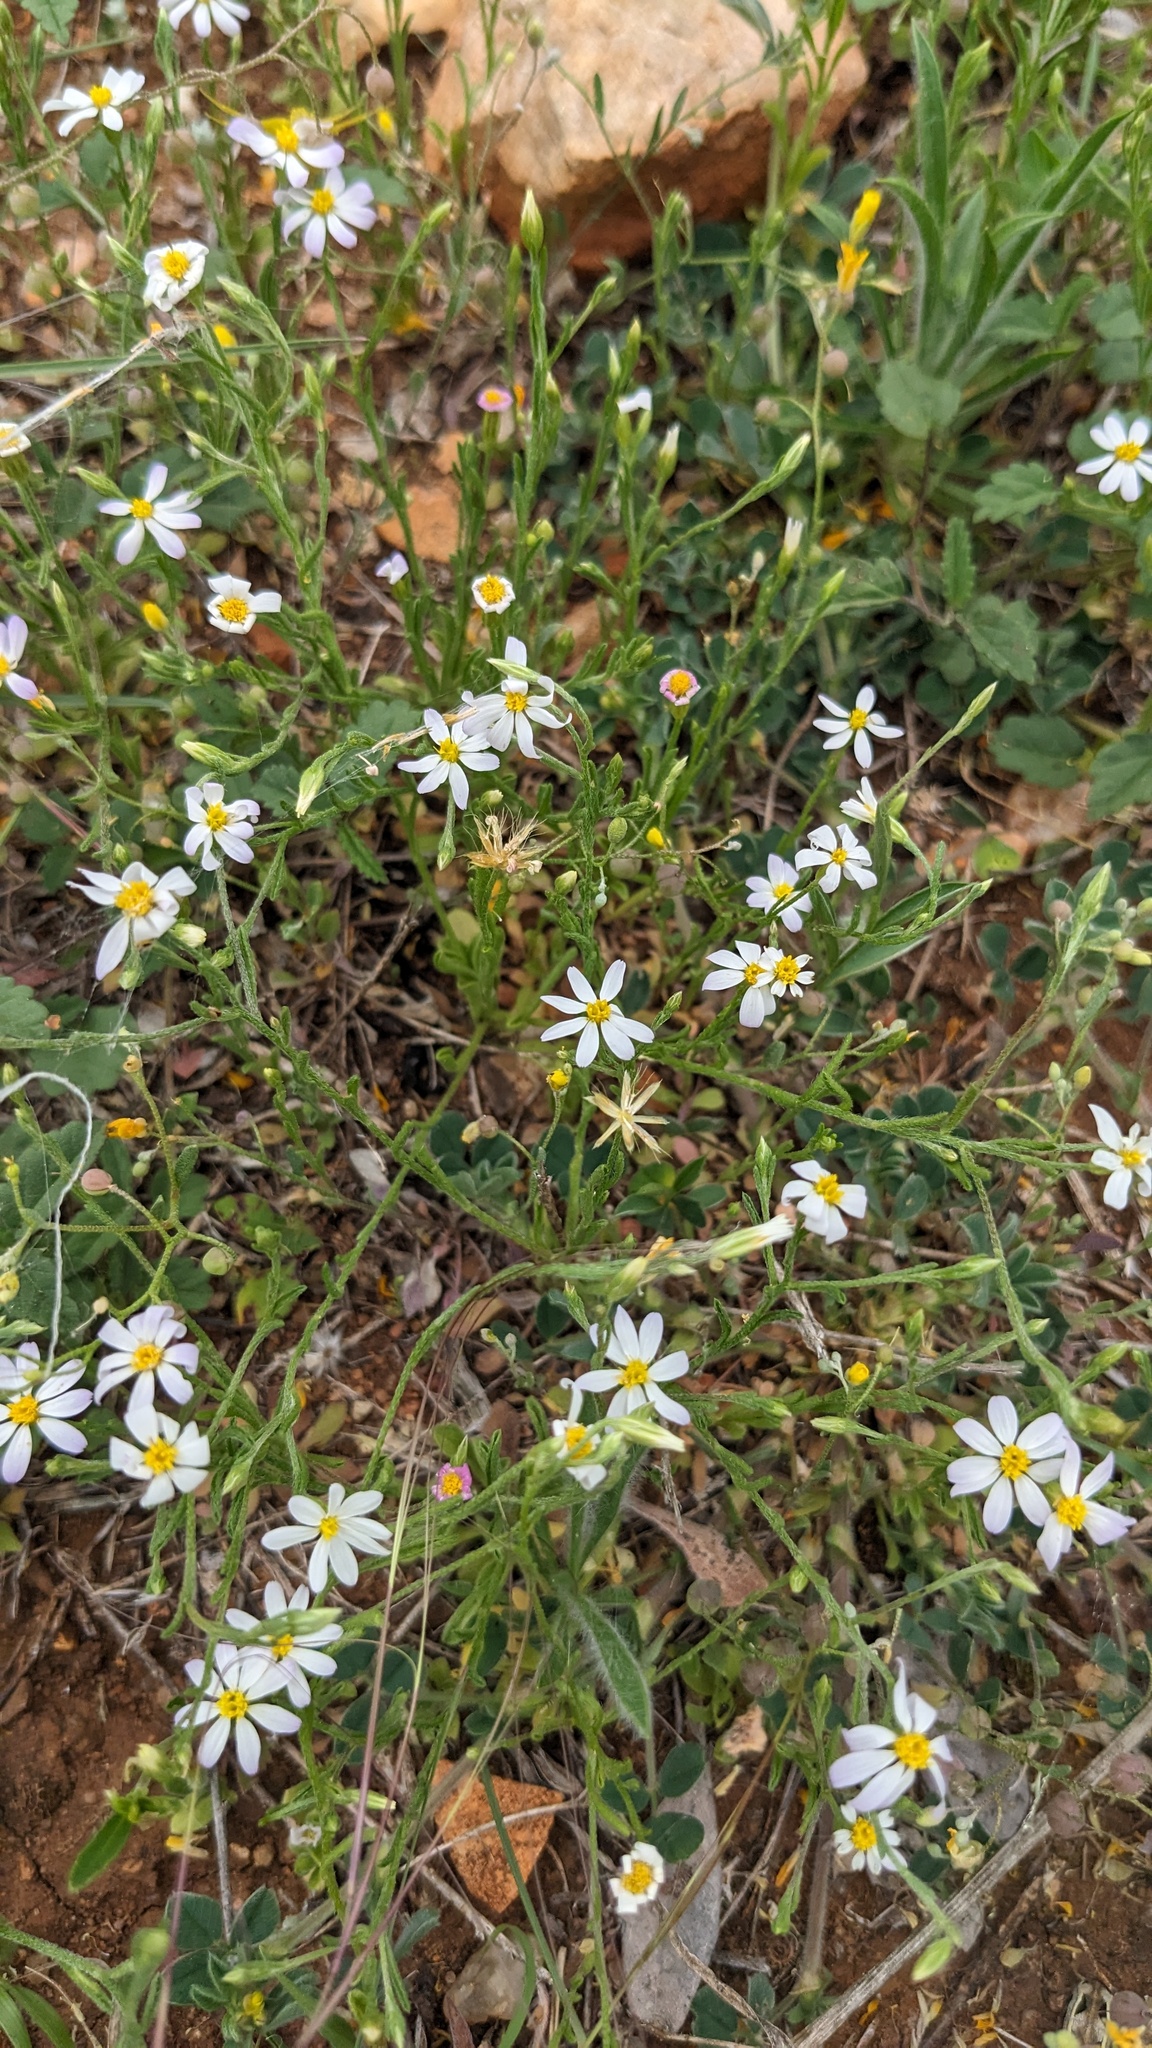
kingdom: Plantae
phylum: Tracheophyta
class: Magnoliopsida
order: Asterales
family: Asteraceae
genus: Chaetopappa
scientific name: Chaetopappa asteroides
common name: Tiny lazy daisy
